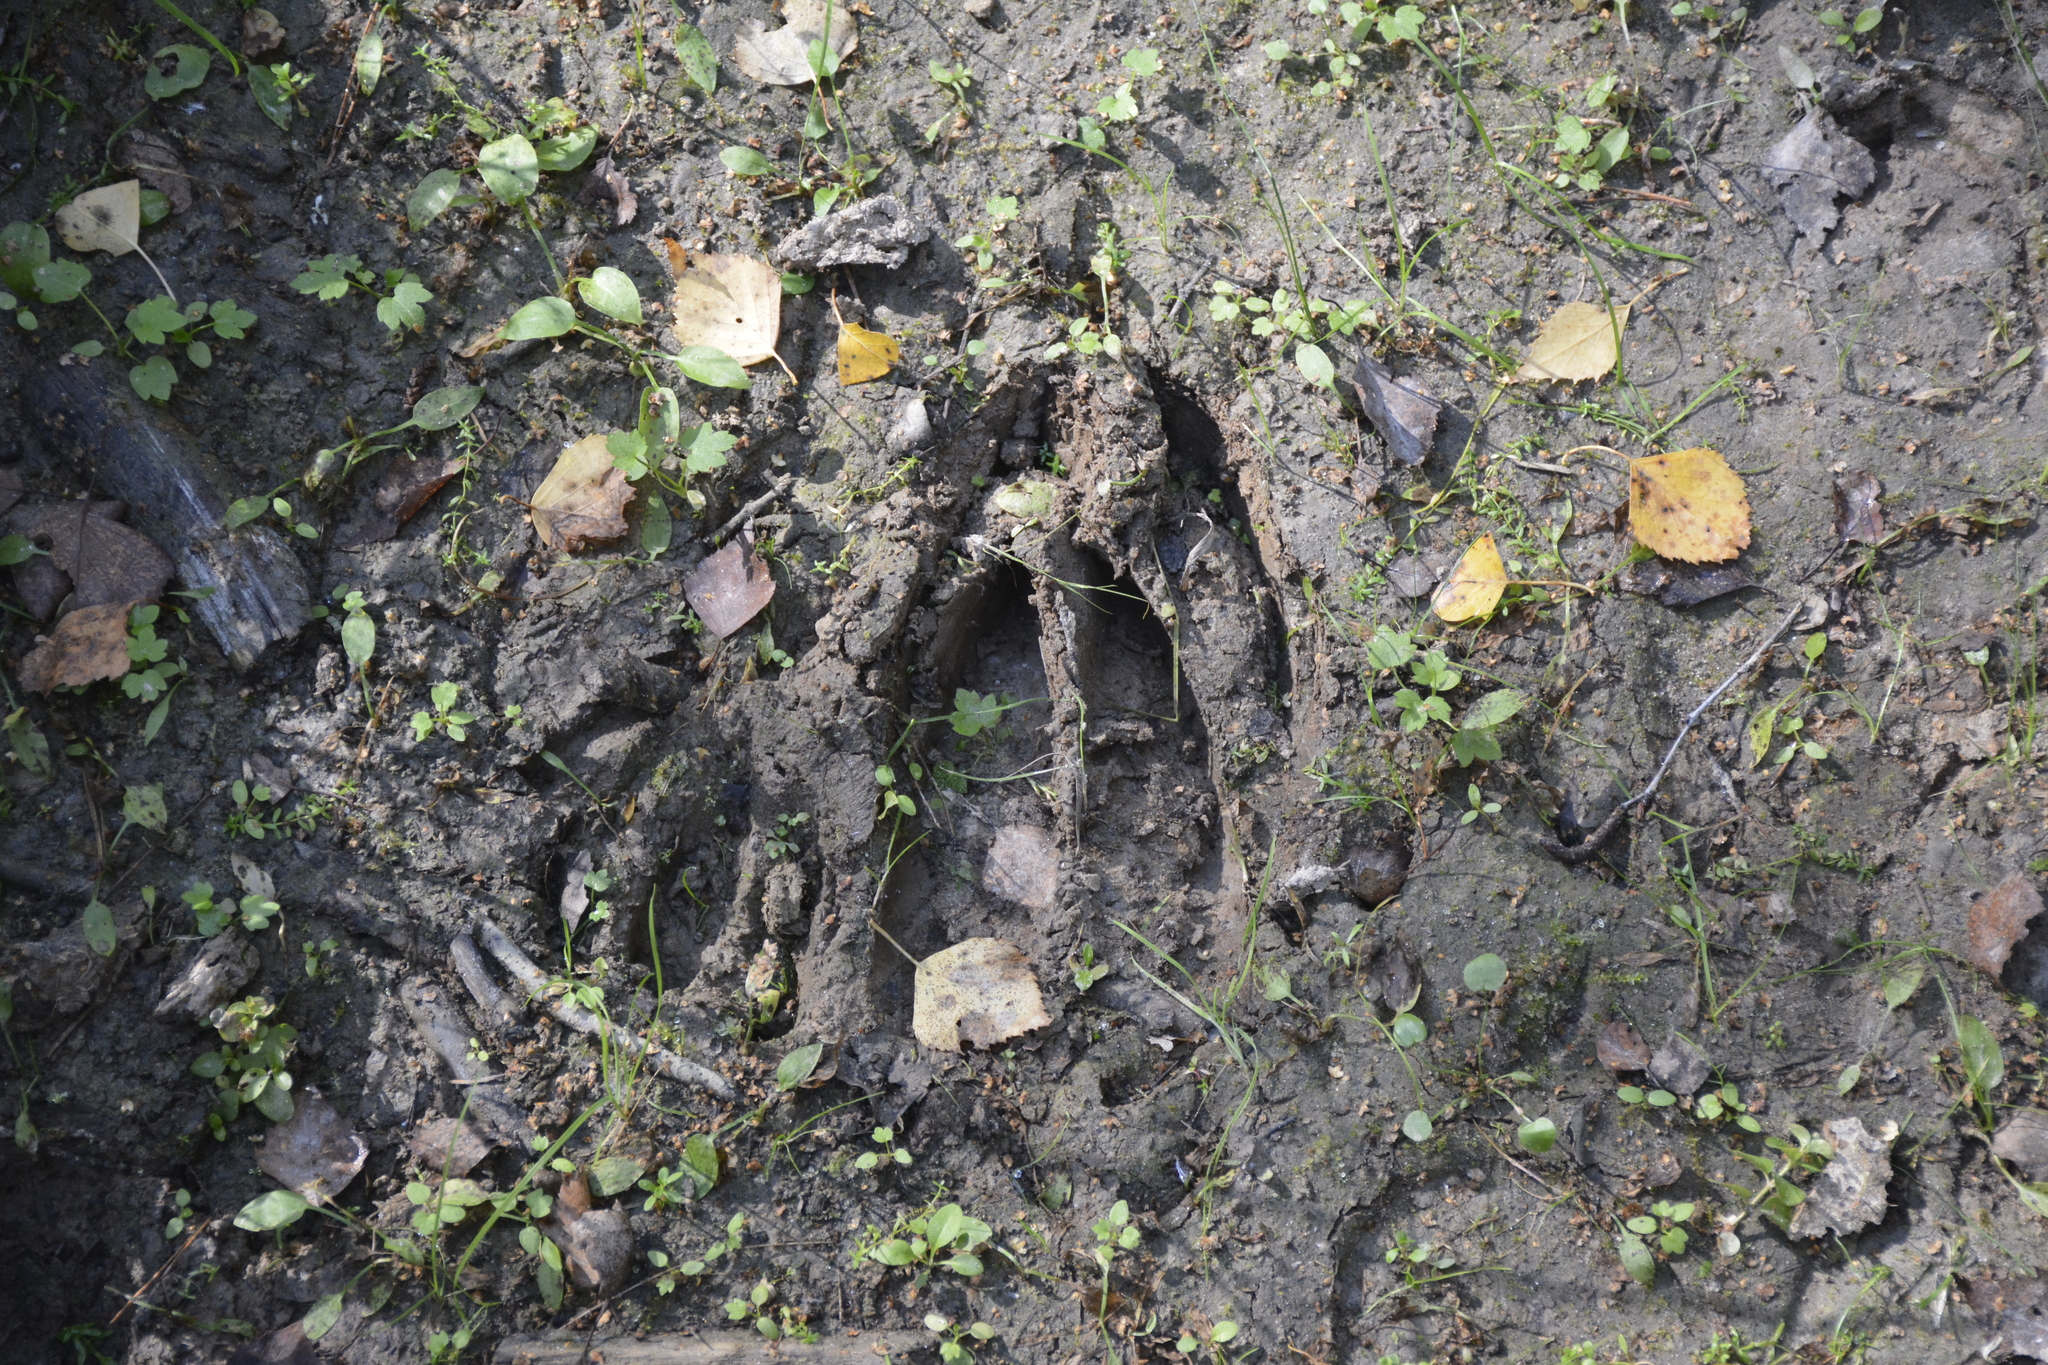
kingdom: Animalia
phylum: Chordata
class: Mammalia
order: Artiodactyla
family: Cervidae
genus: Alces
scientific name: Alces alces
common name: Moose
